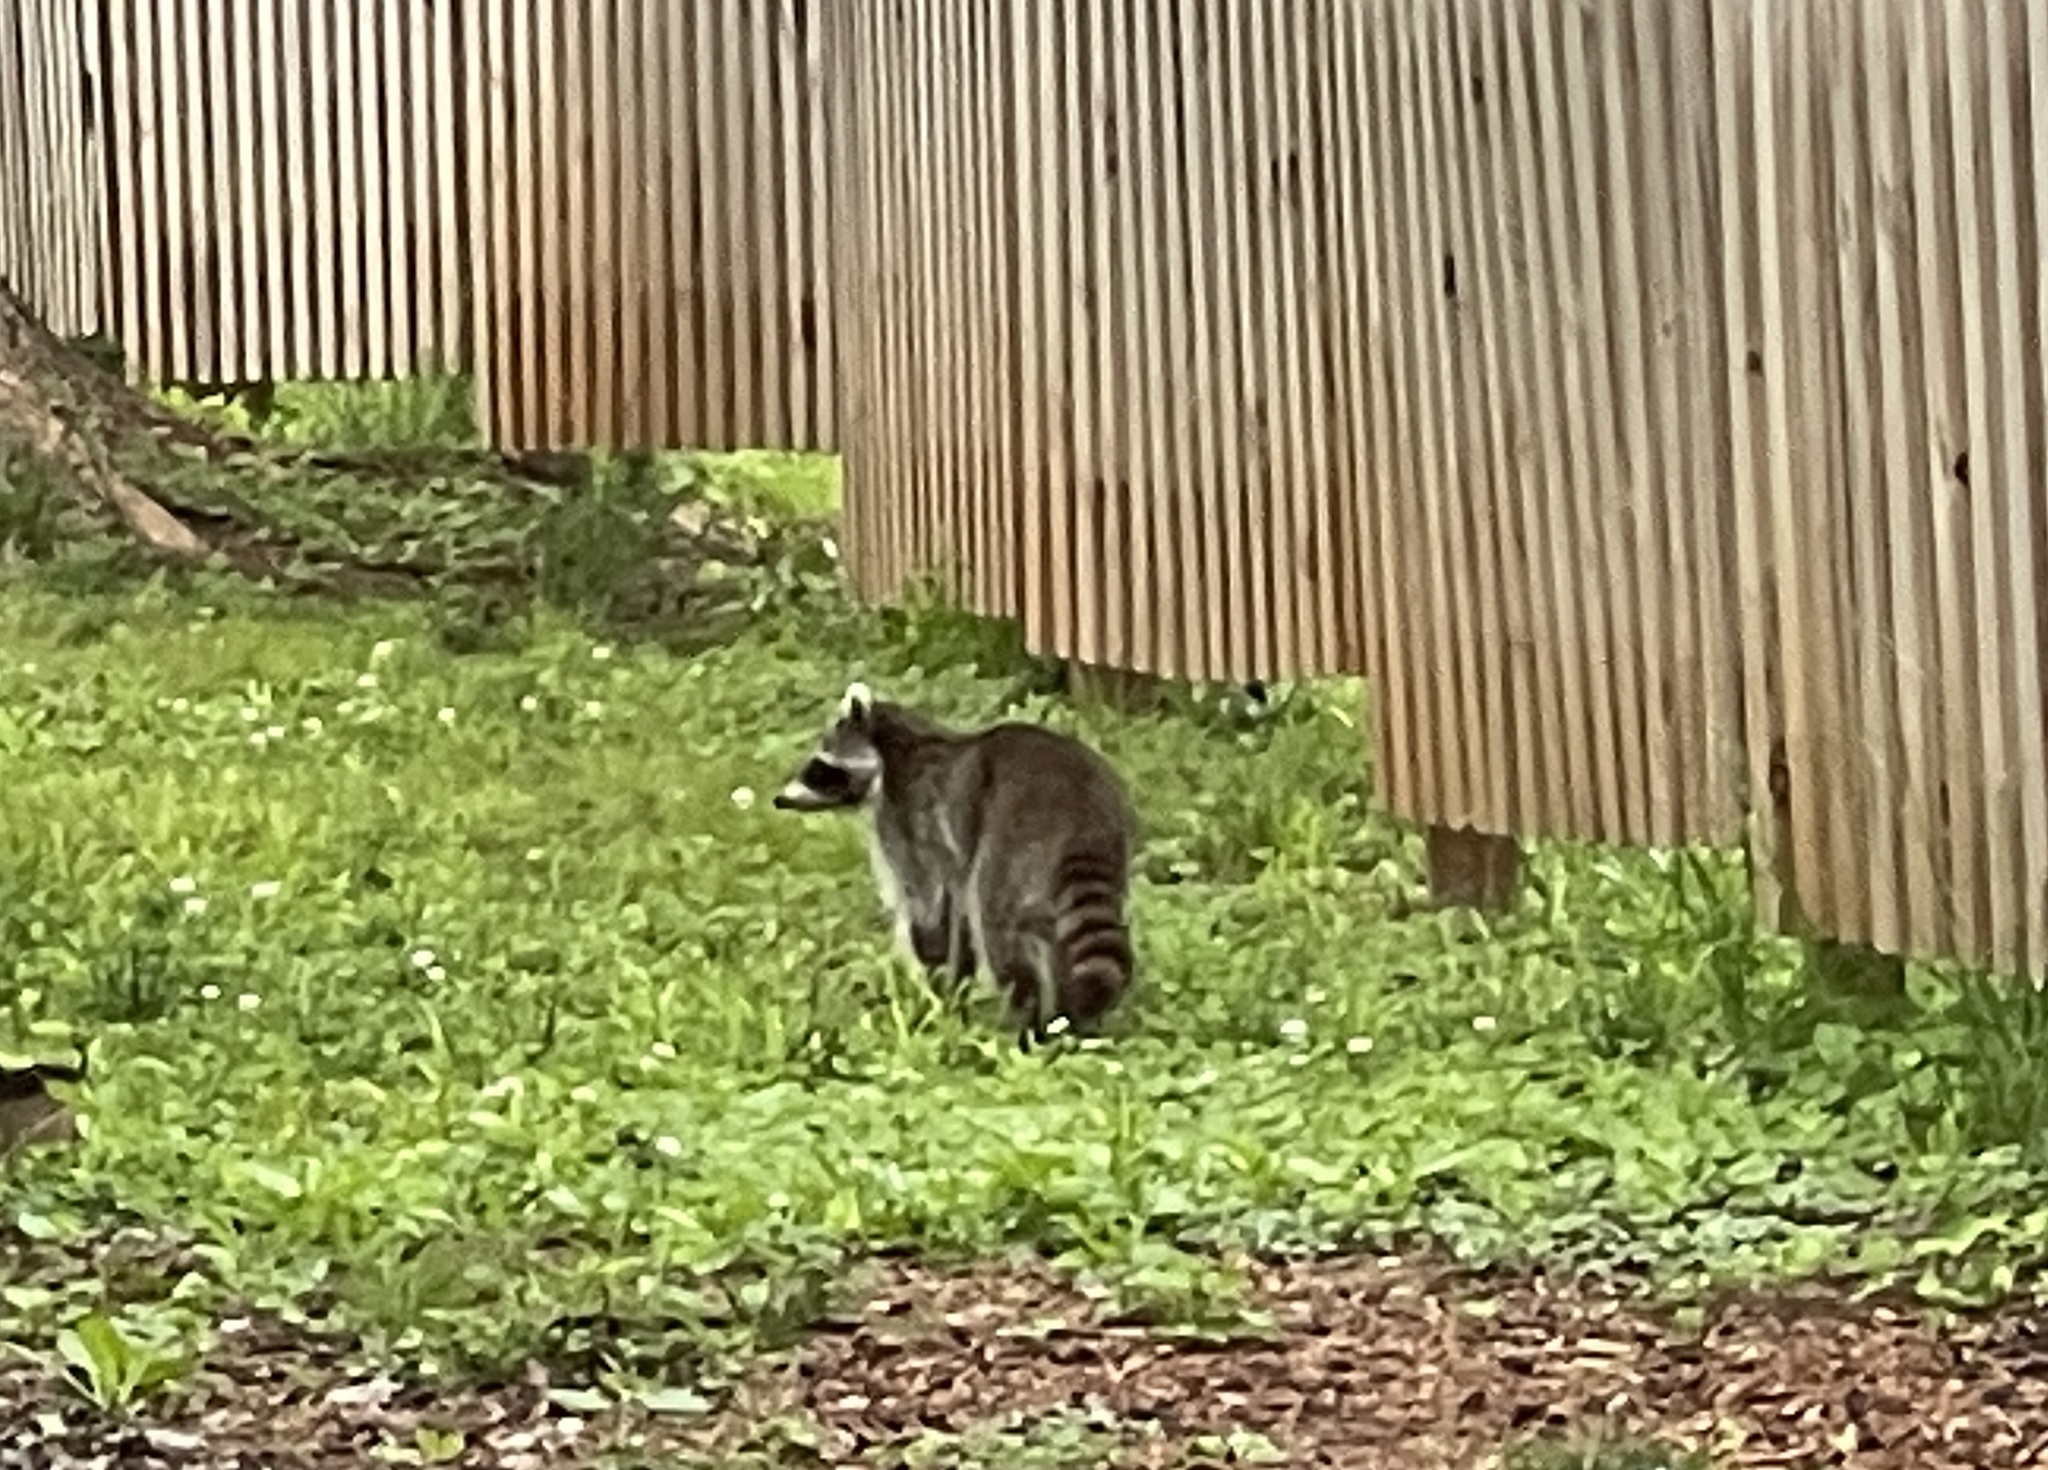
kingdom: Animalia
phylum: Chordata
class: Mammalia
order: Carnivora
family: Procyonidae
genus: Procyon
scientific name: Procyon lotor
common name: Raccoon
